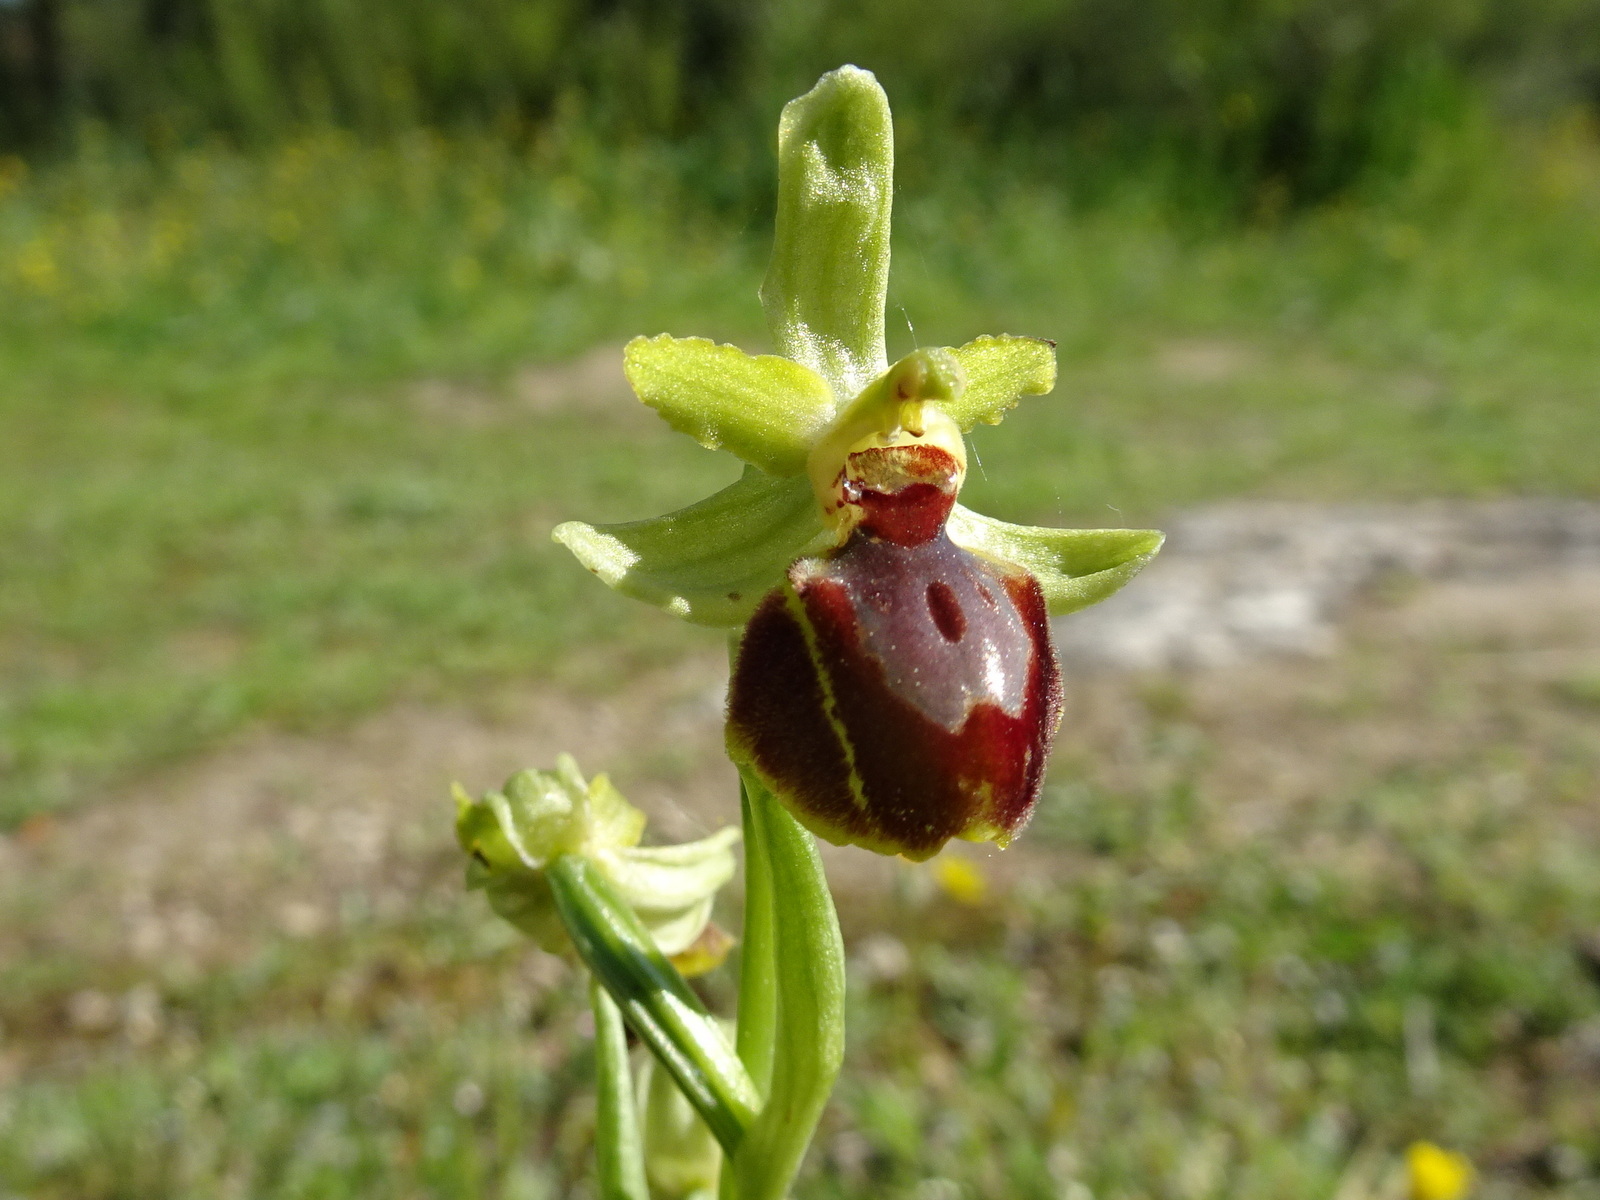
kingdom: Plantae
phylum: Tracheophyta
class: Liliopsida
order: Asparagales
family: Orchidaceae
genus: Ophrys
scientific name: Ophrys sphegodes
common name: Early spider-orchid
